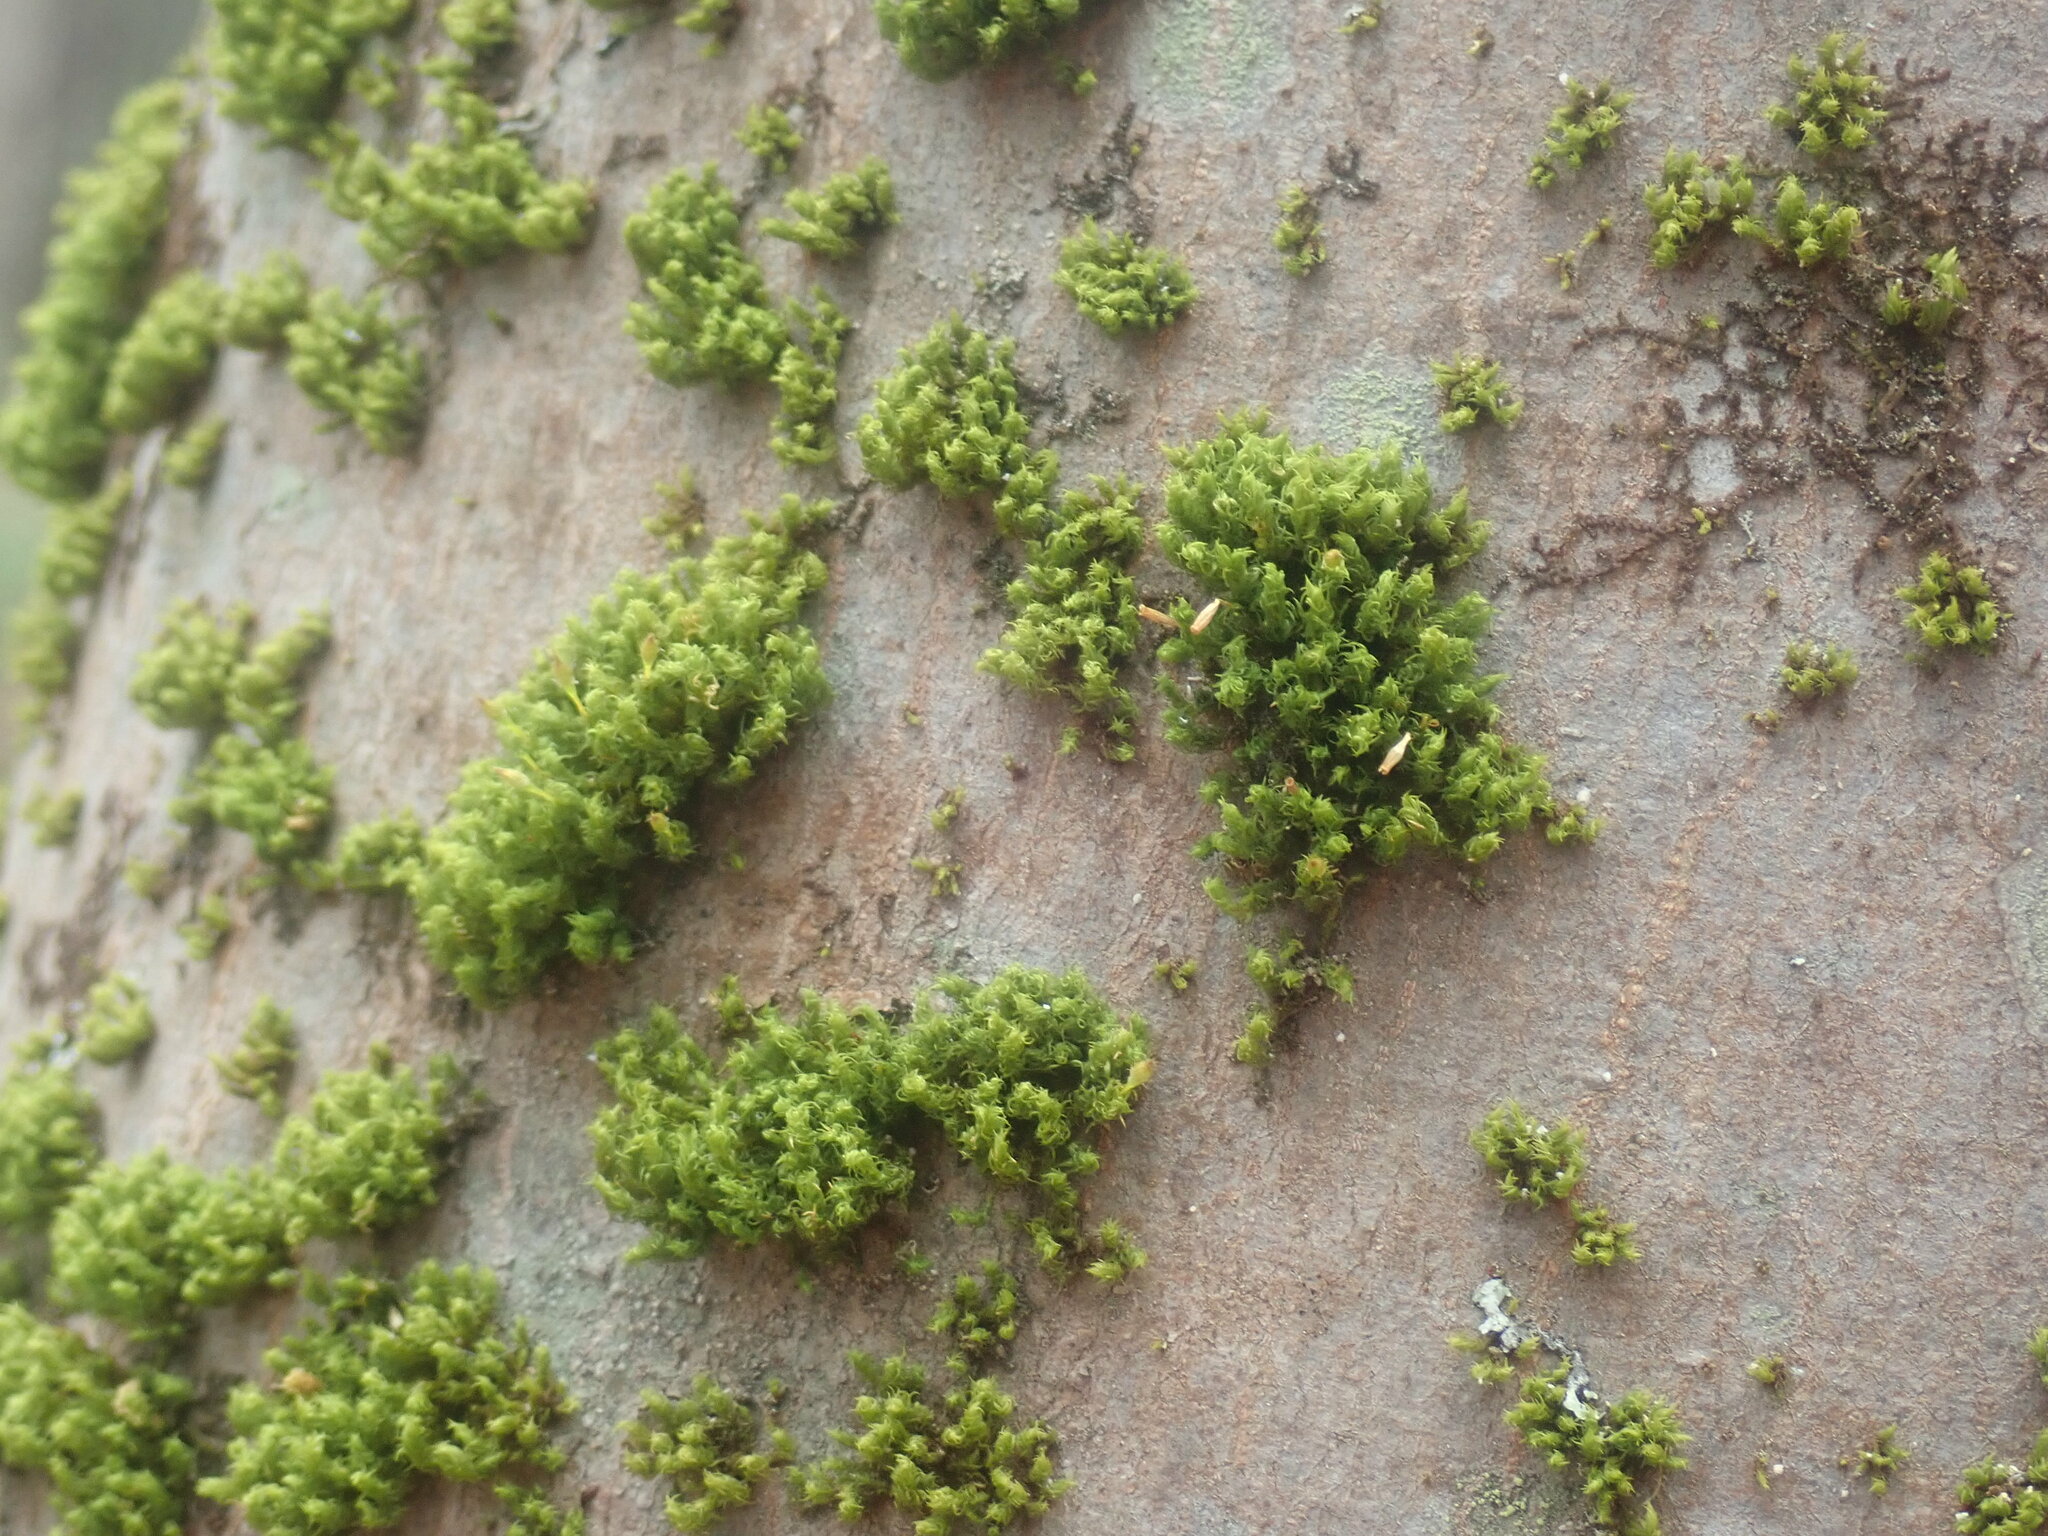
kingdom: Plantae
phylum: Bryophyta
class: Bryopsida
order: Orthotrichales
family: Orthotrichaceae
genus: Ulota
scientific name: Ulota
